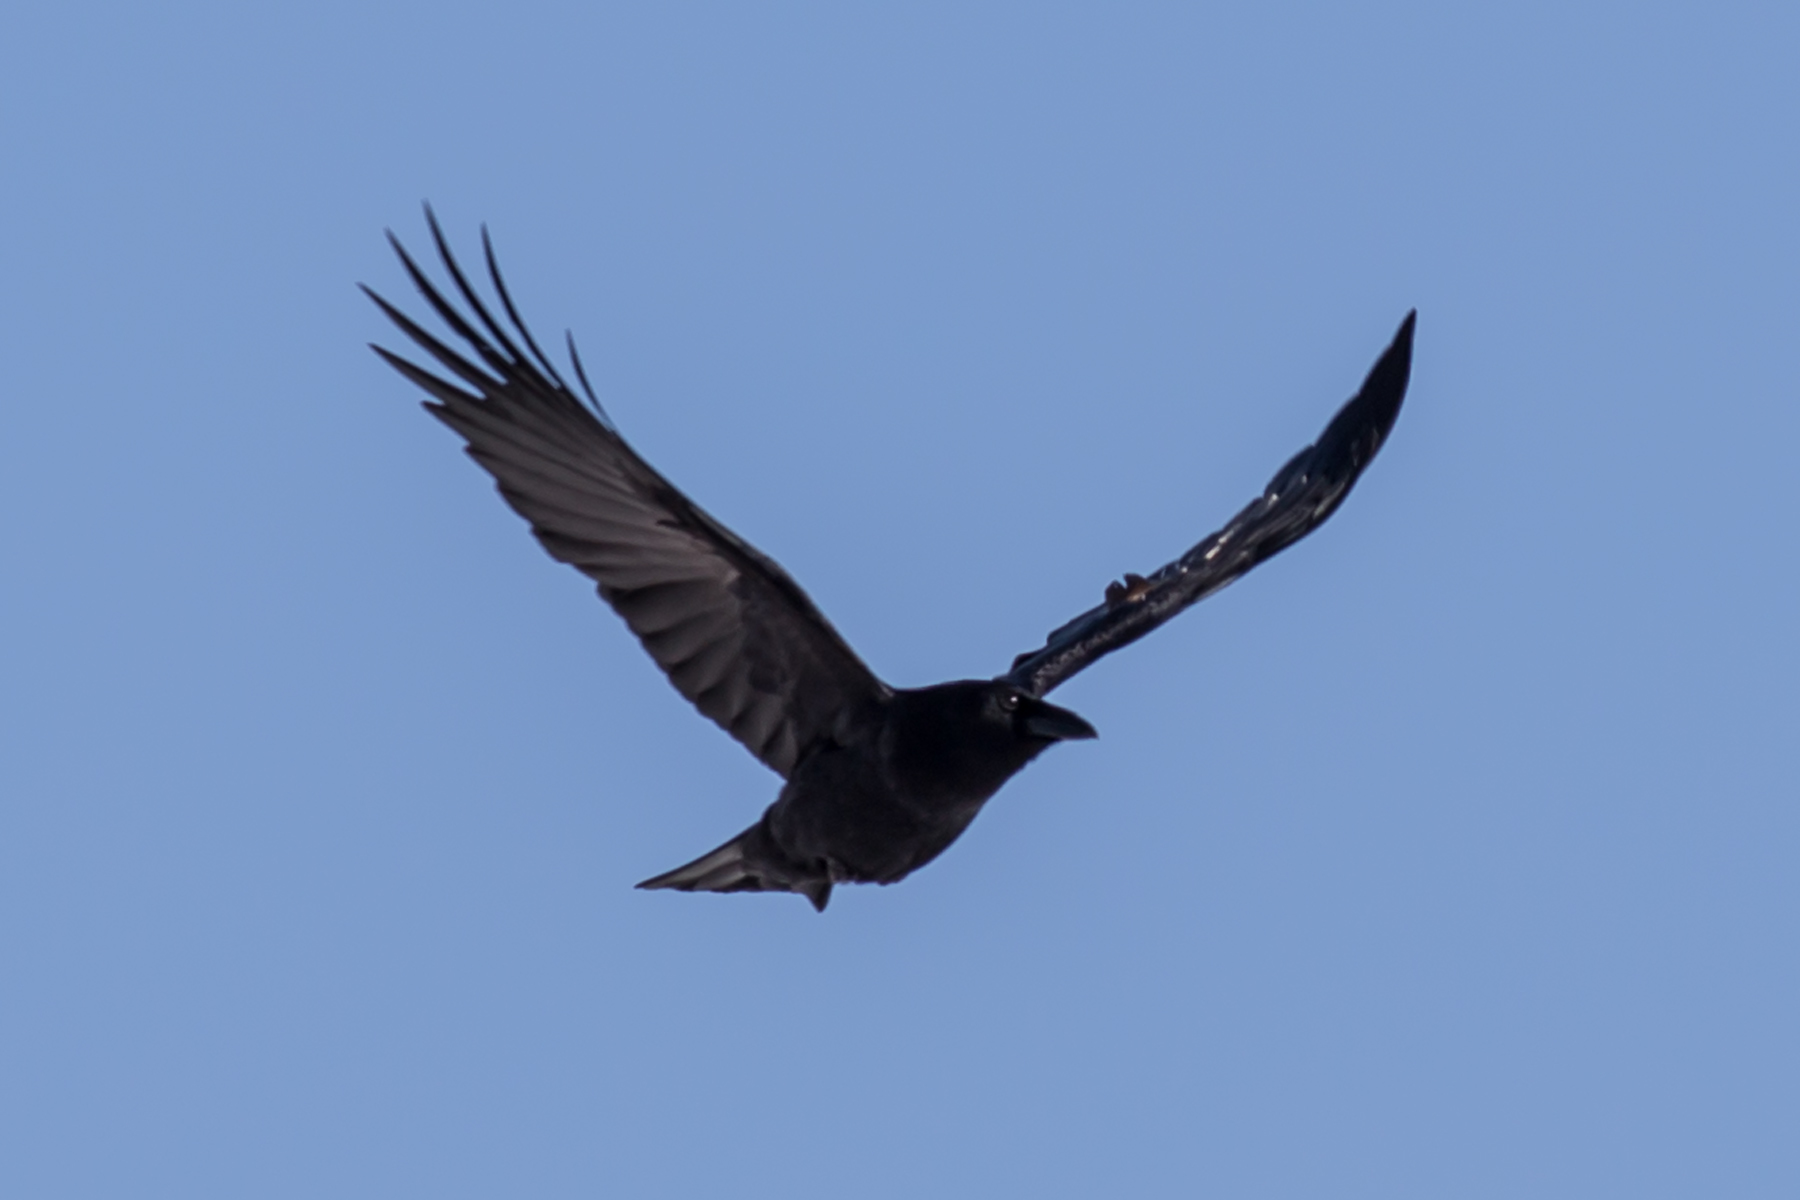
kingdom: Animalia
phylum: Chordata
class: Aves
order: Passeriformes
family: Corvidae
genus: Corvus
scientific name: Corvus brachyrhynchos
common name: American crow
